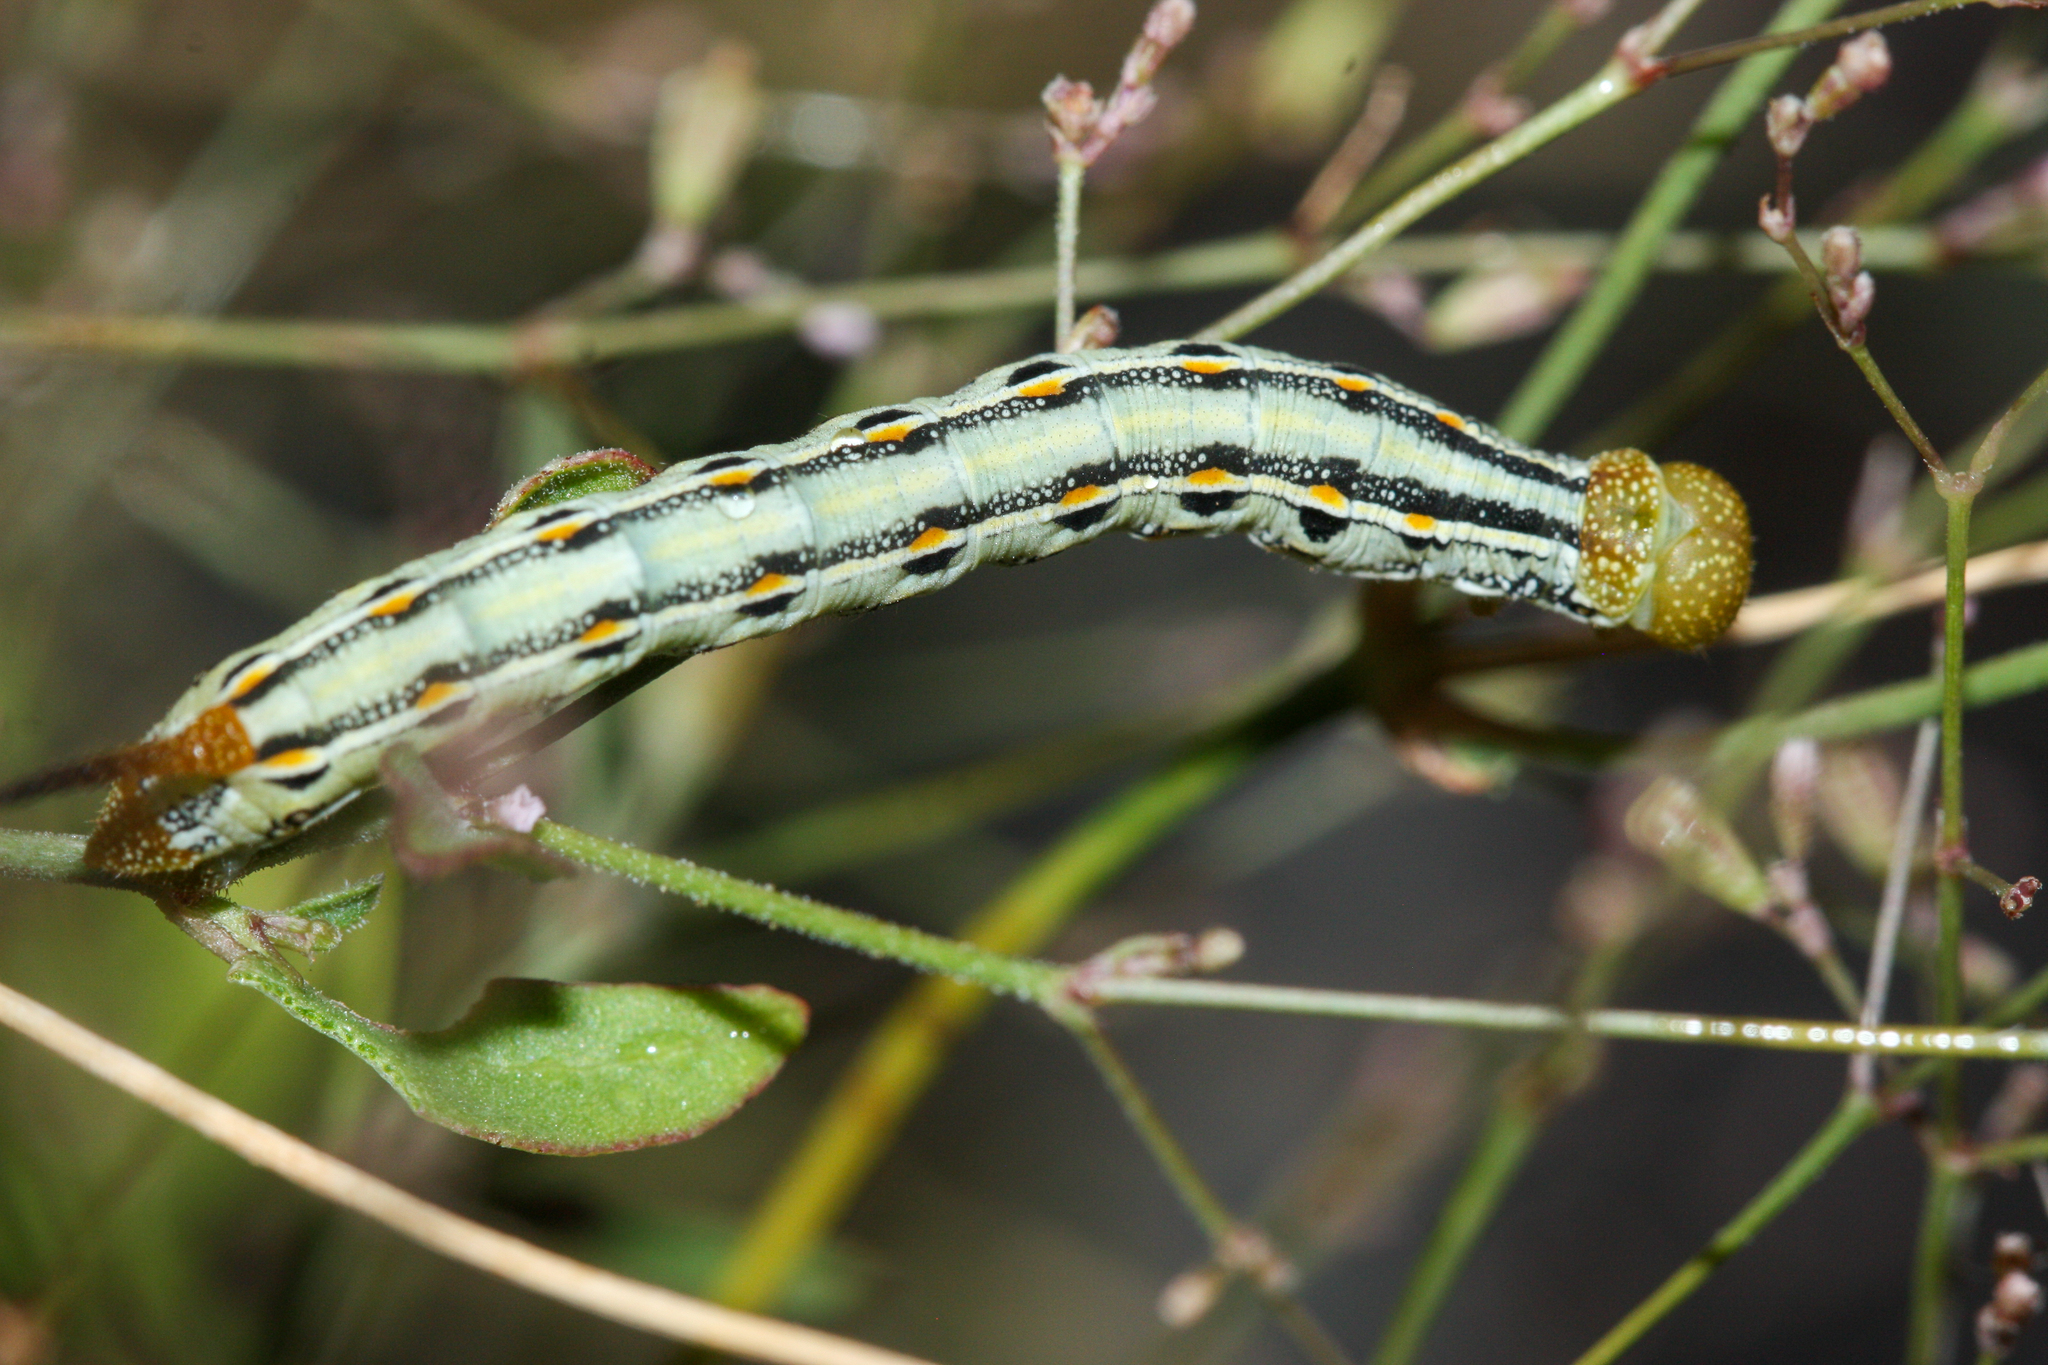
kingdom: Animalia
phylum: Arthropoda
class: Insecta
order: Lepidoptera
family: Sphingidae
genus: Hyles
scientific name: Hyles lineata
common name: White-lined sphinx
